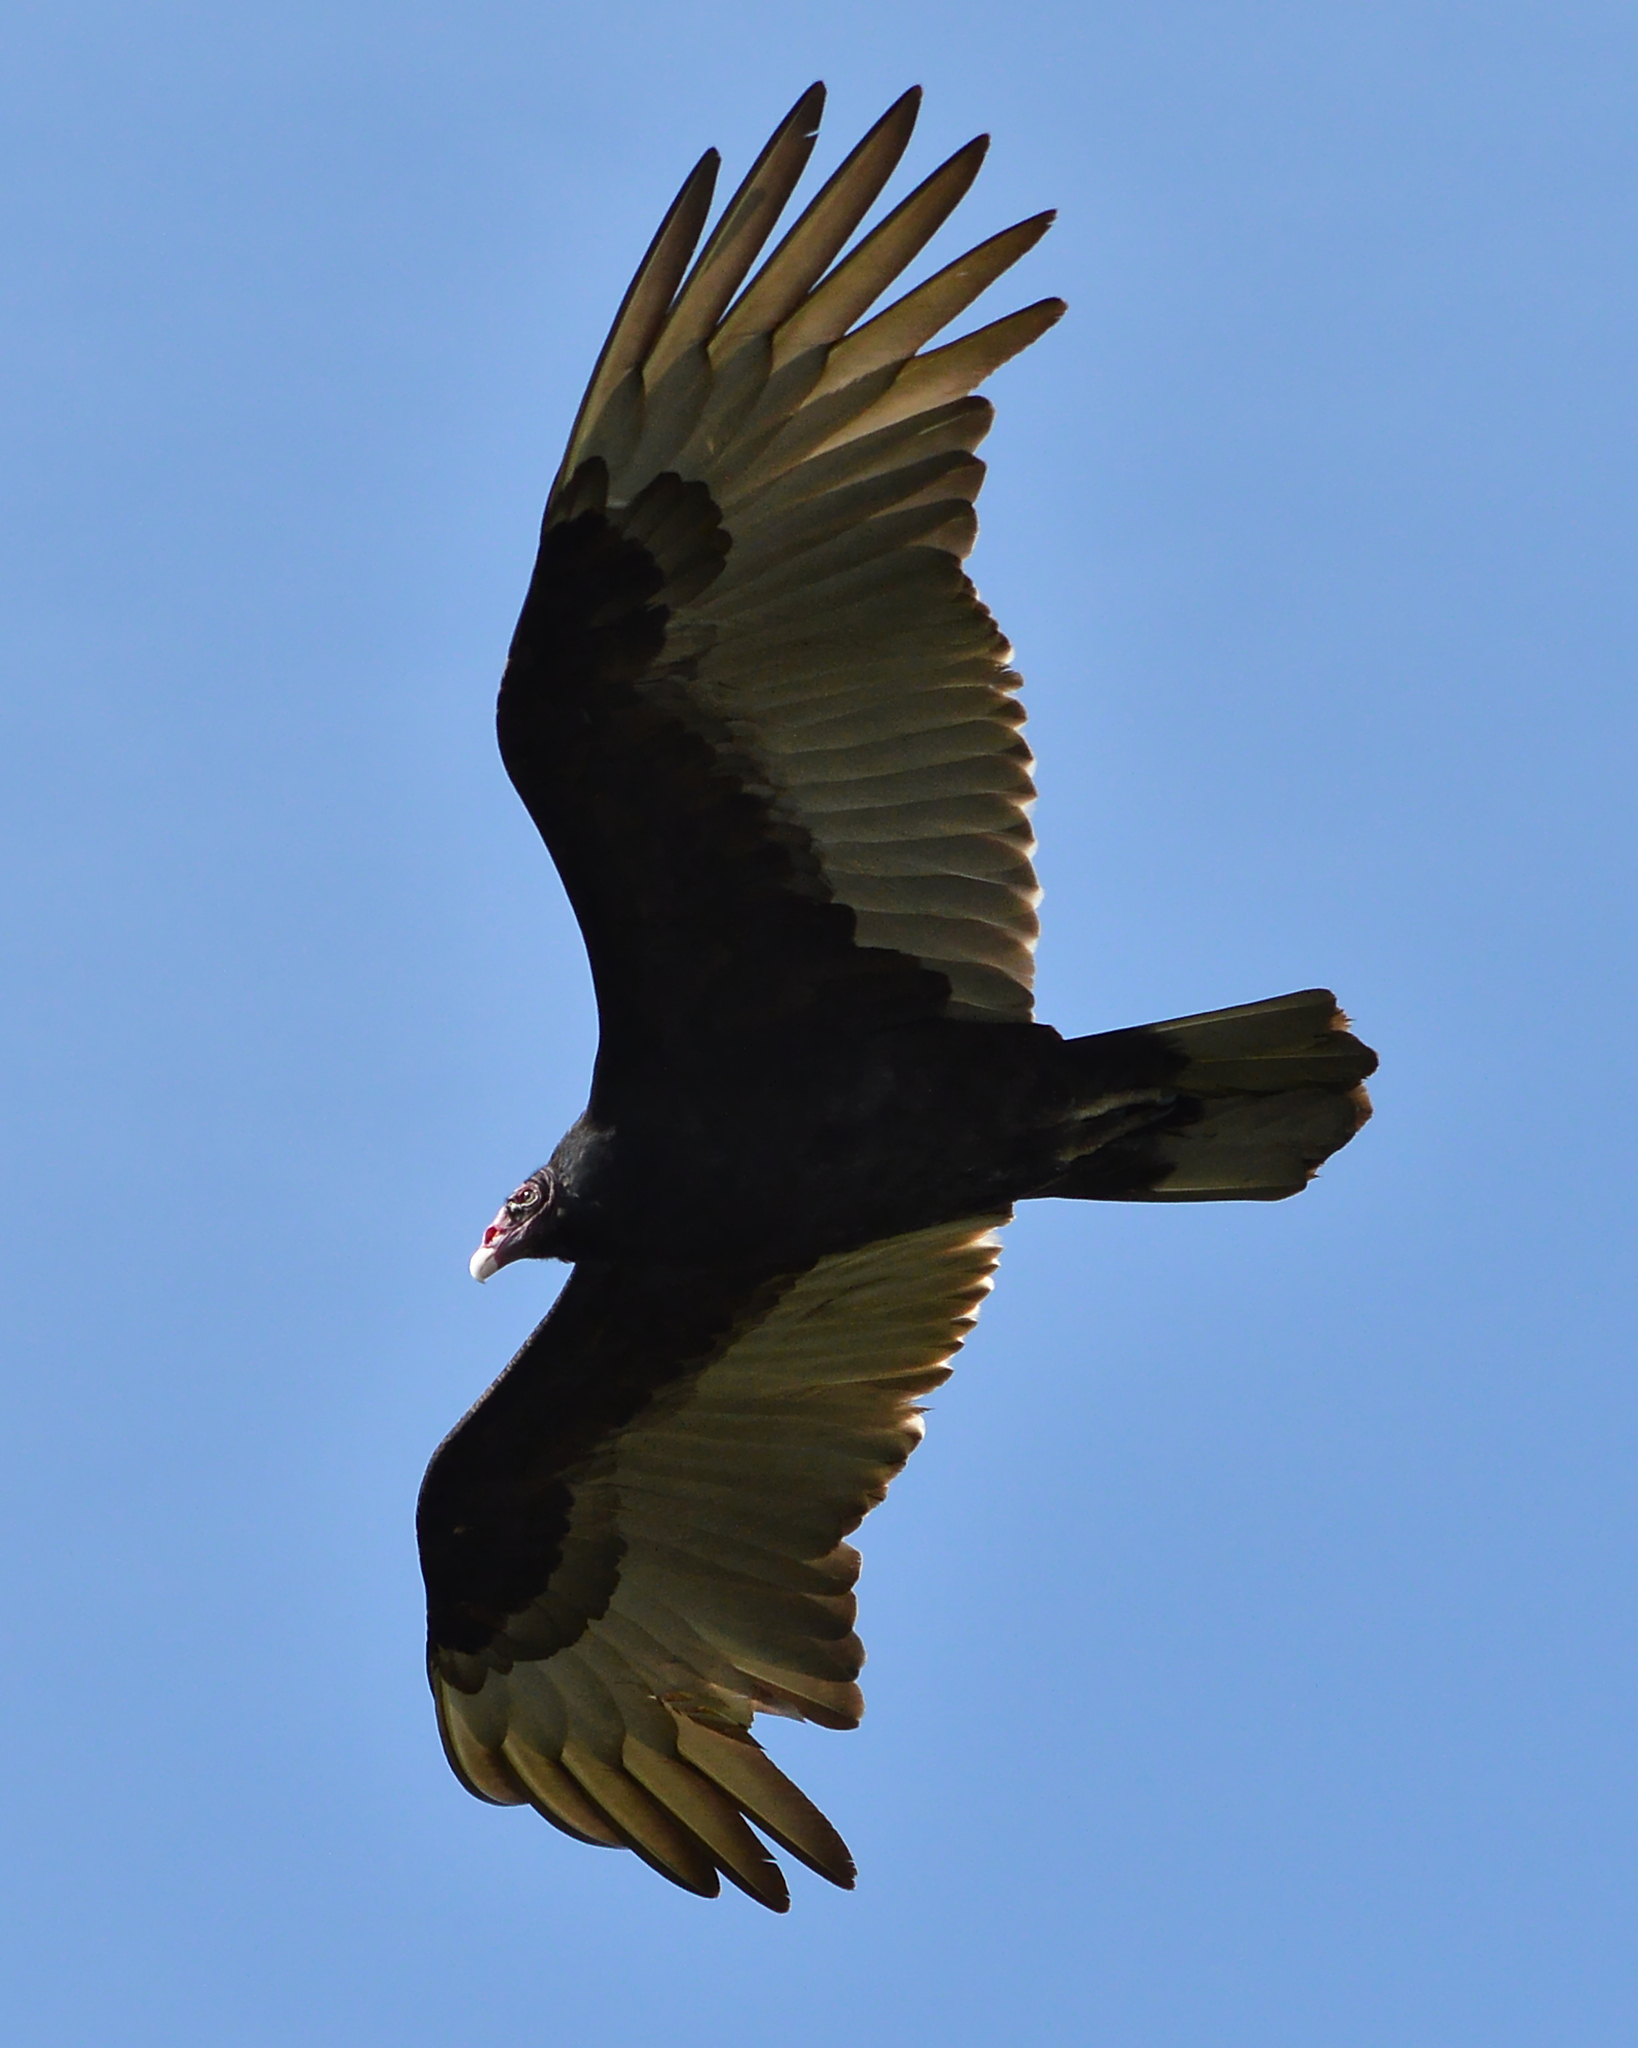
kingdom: Animalia
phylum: Chordata
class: Aves
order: Accipitriformes
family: Cathartidae
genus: Cathartes
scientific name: Cathartes aura
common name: Turkey vulture
